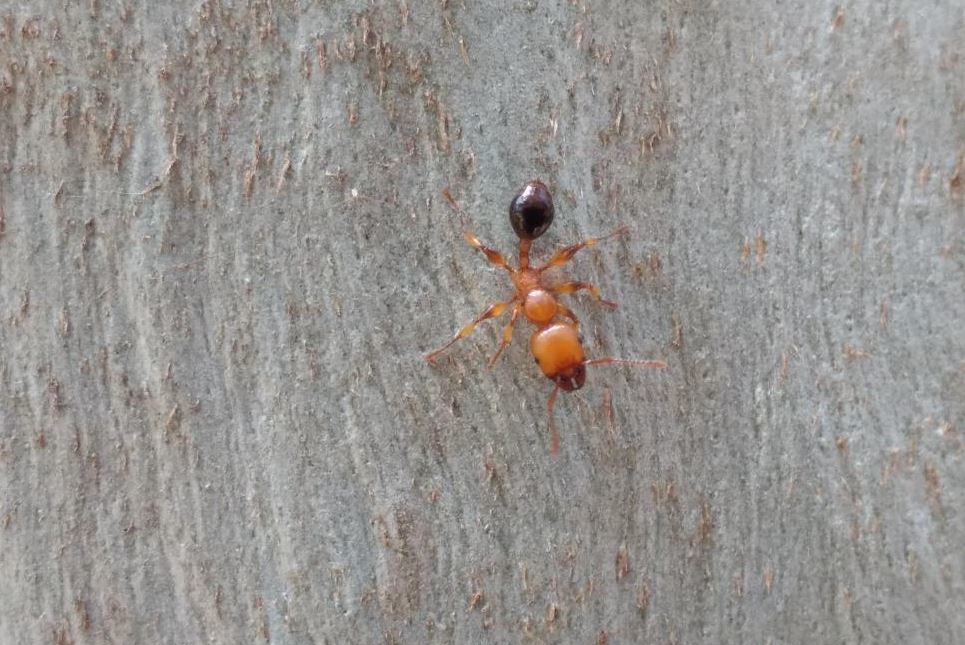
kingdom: Animalia
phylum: Arthropoda
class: Insecta
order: Hymenoptera
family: Formicidae
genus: Podomyrma
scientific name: Podomyrma gratiosa
